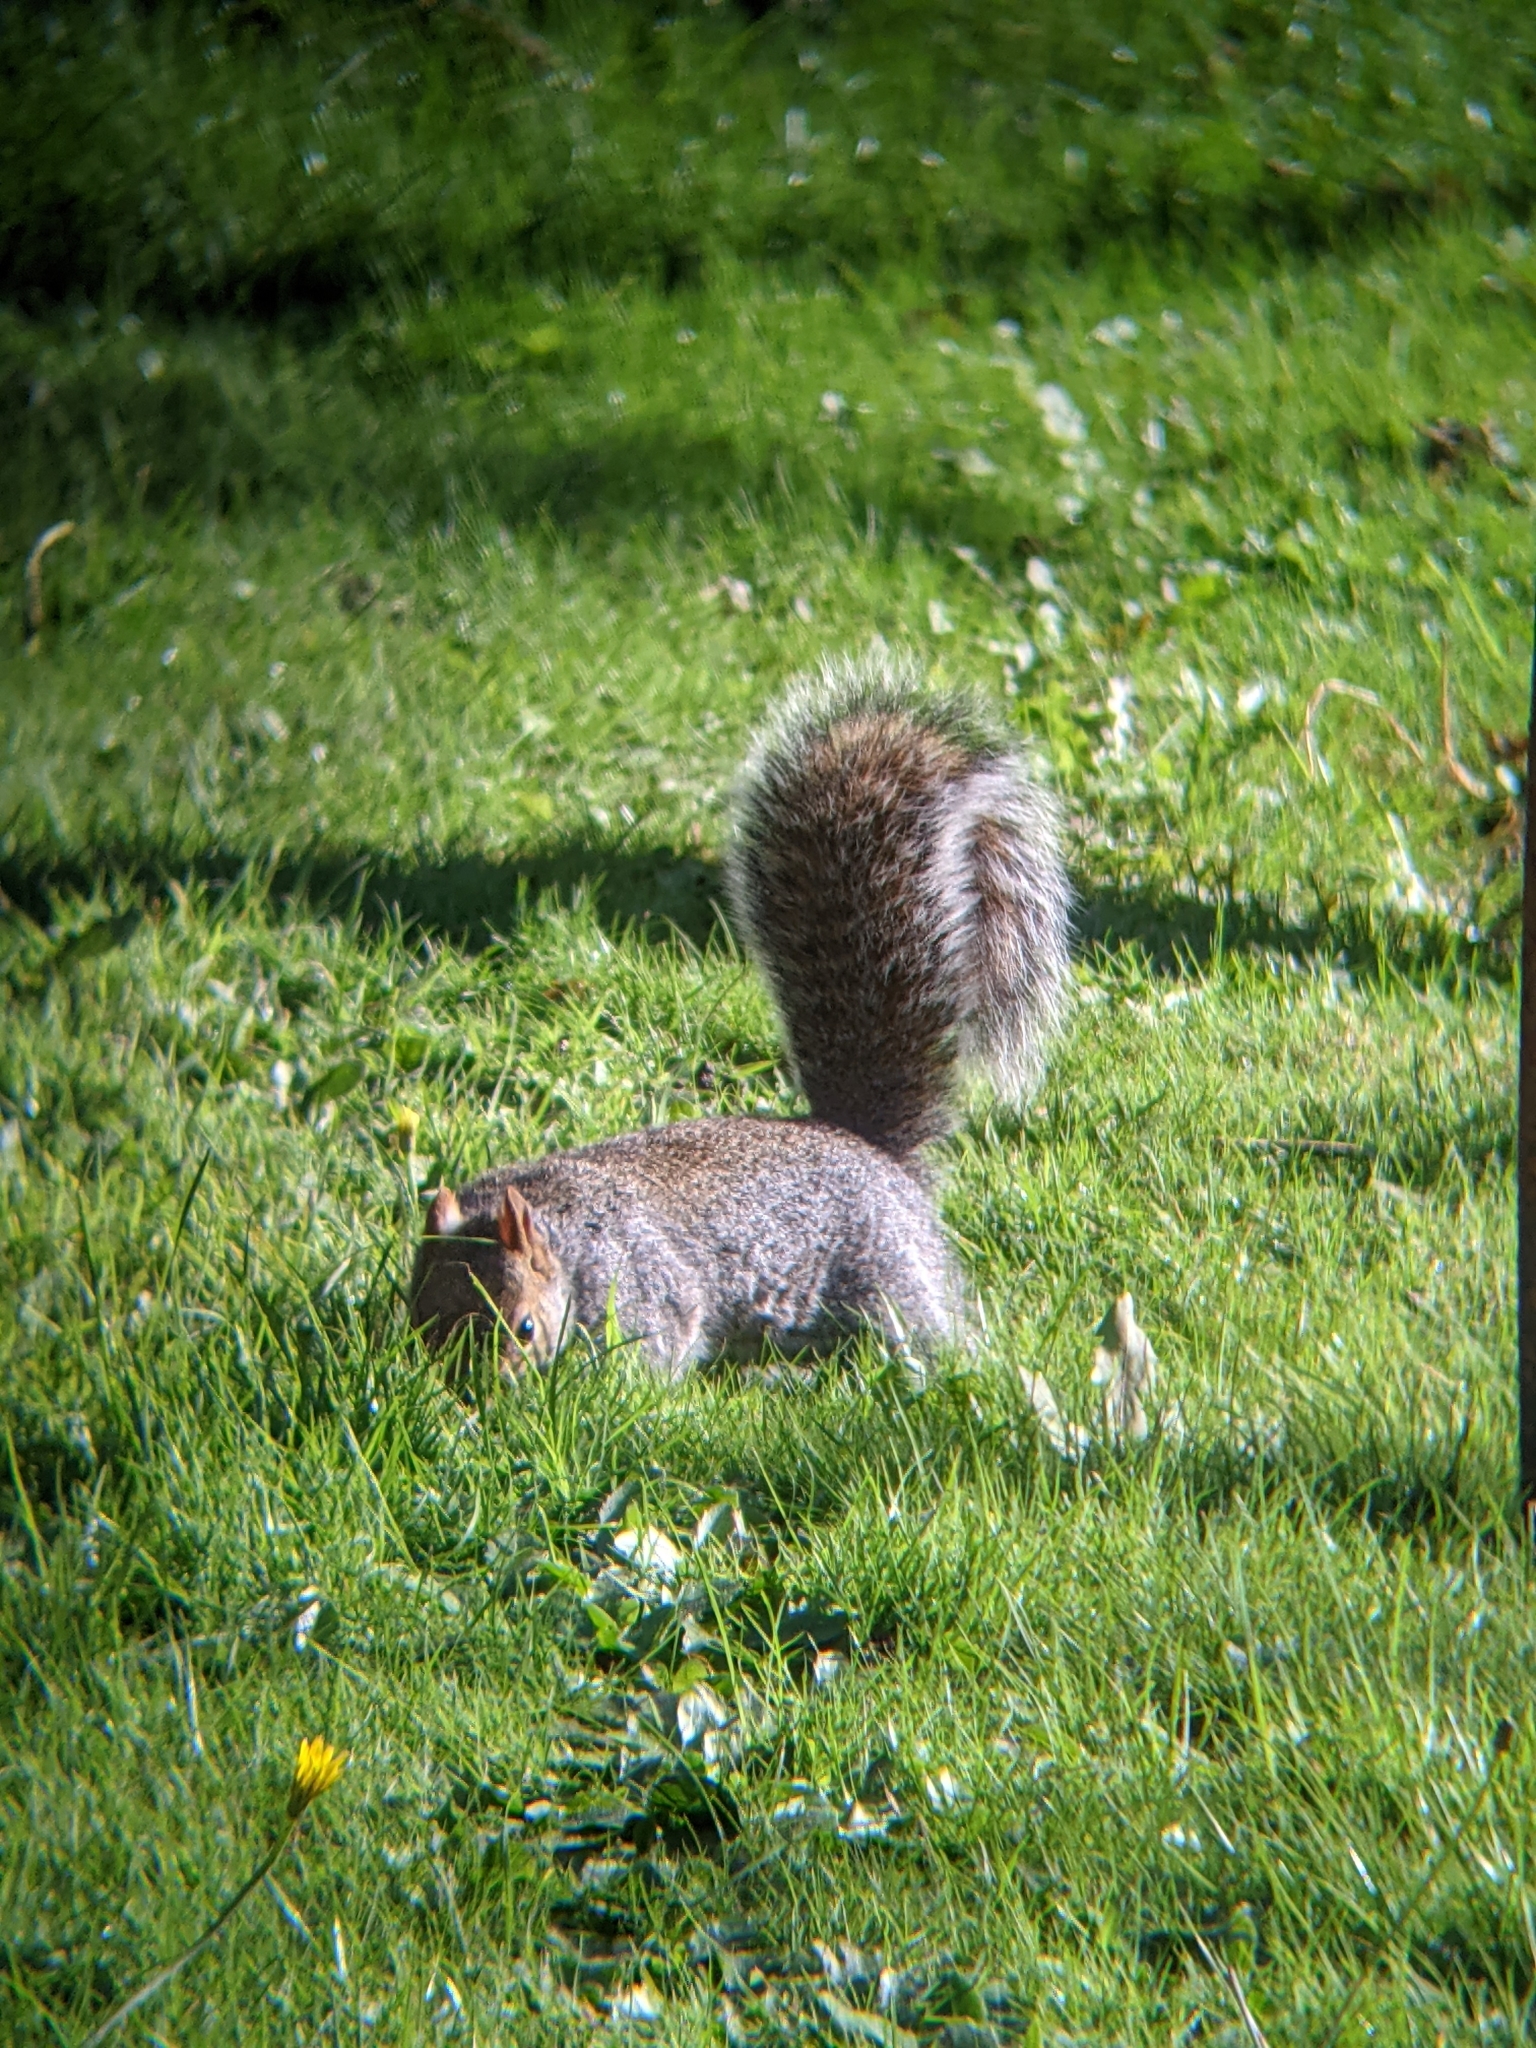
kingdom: Animalia
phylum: Chordata
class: Mammalia
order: Rodentia
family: Sciuridae
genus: Sciurus
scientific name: Sciurus carolinensis
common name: Eastern gray squirrel
